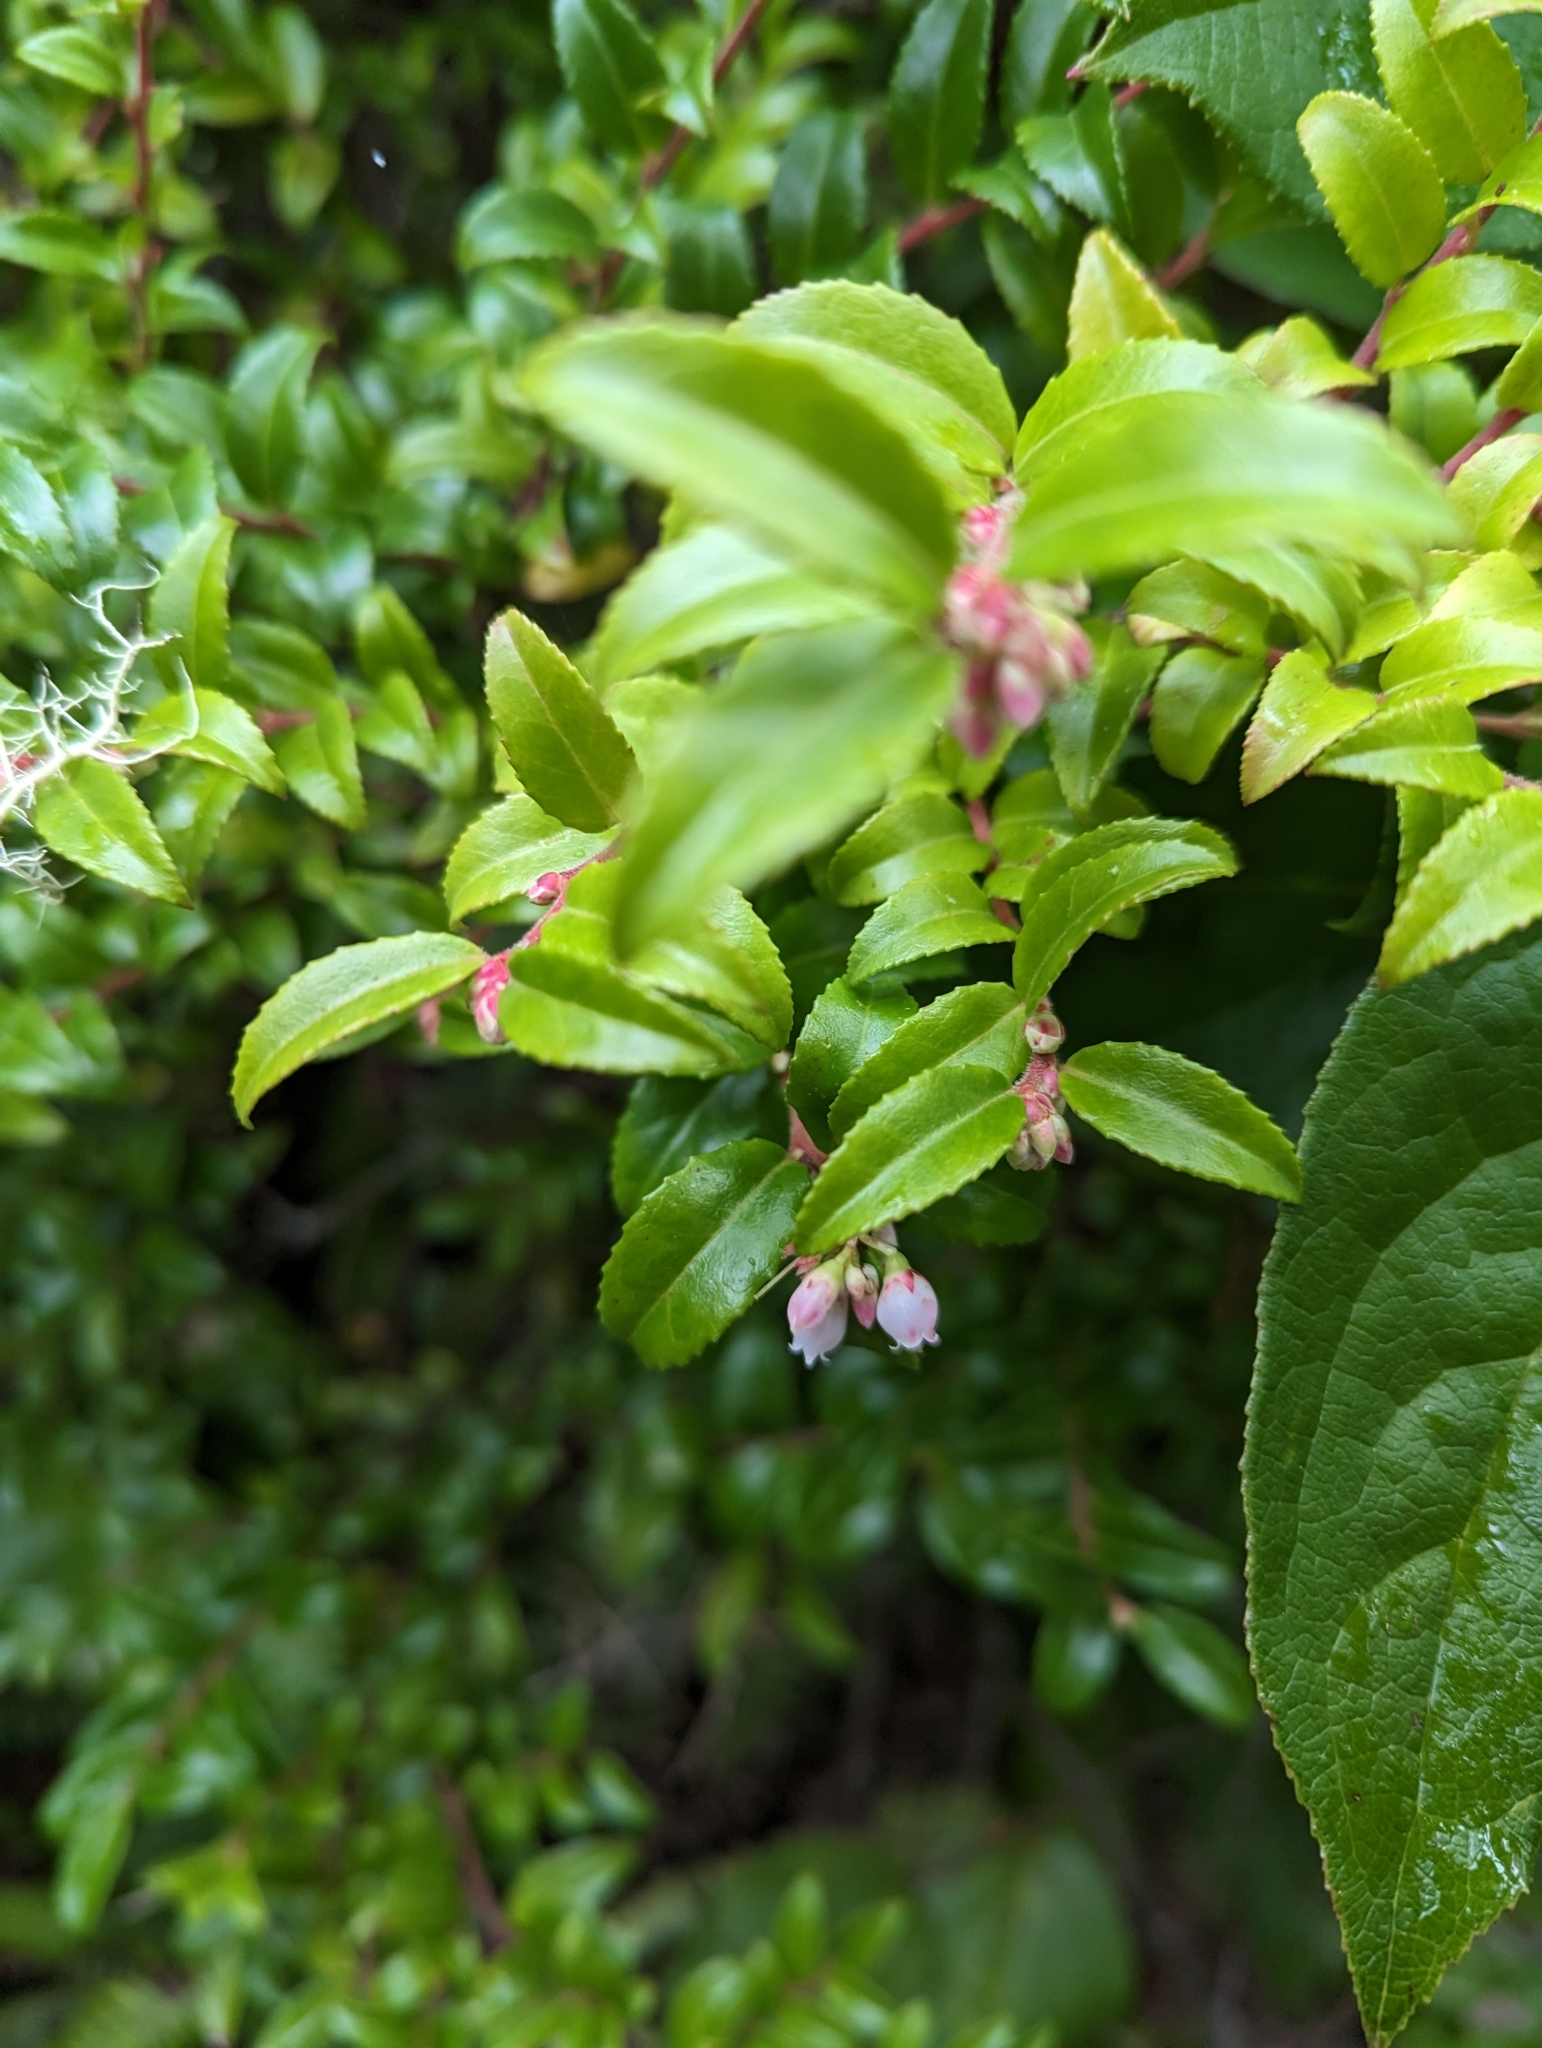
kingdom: Plantae
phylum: Tracheophyta
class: Magnoliopsida
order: Ericales
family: Ericaceae
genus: Vaccinium
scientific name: Vaccinium ovatum
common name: California-huckleberry
